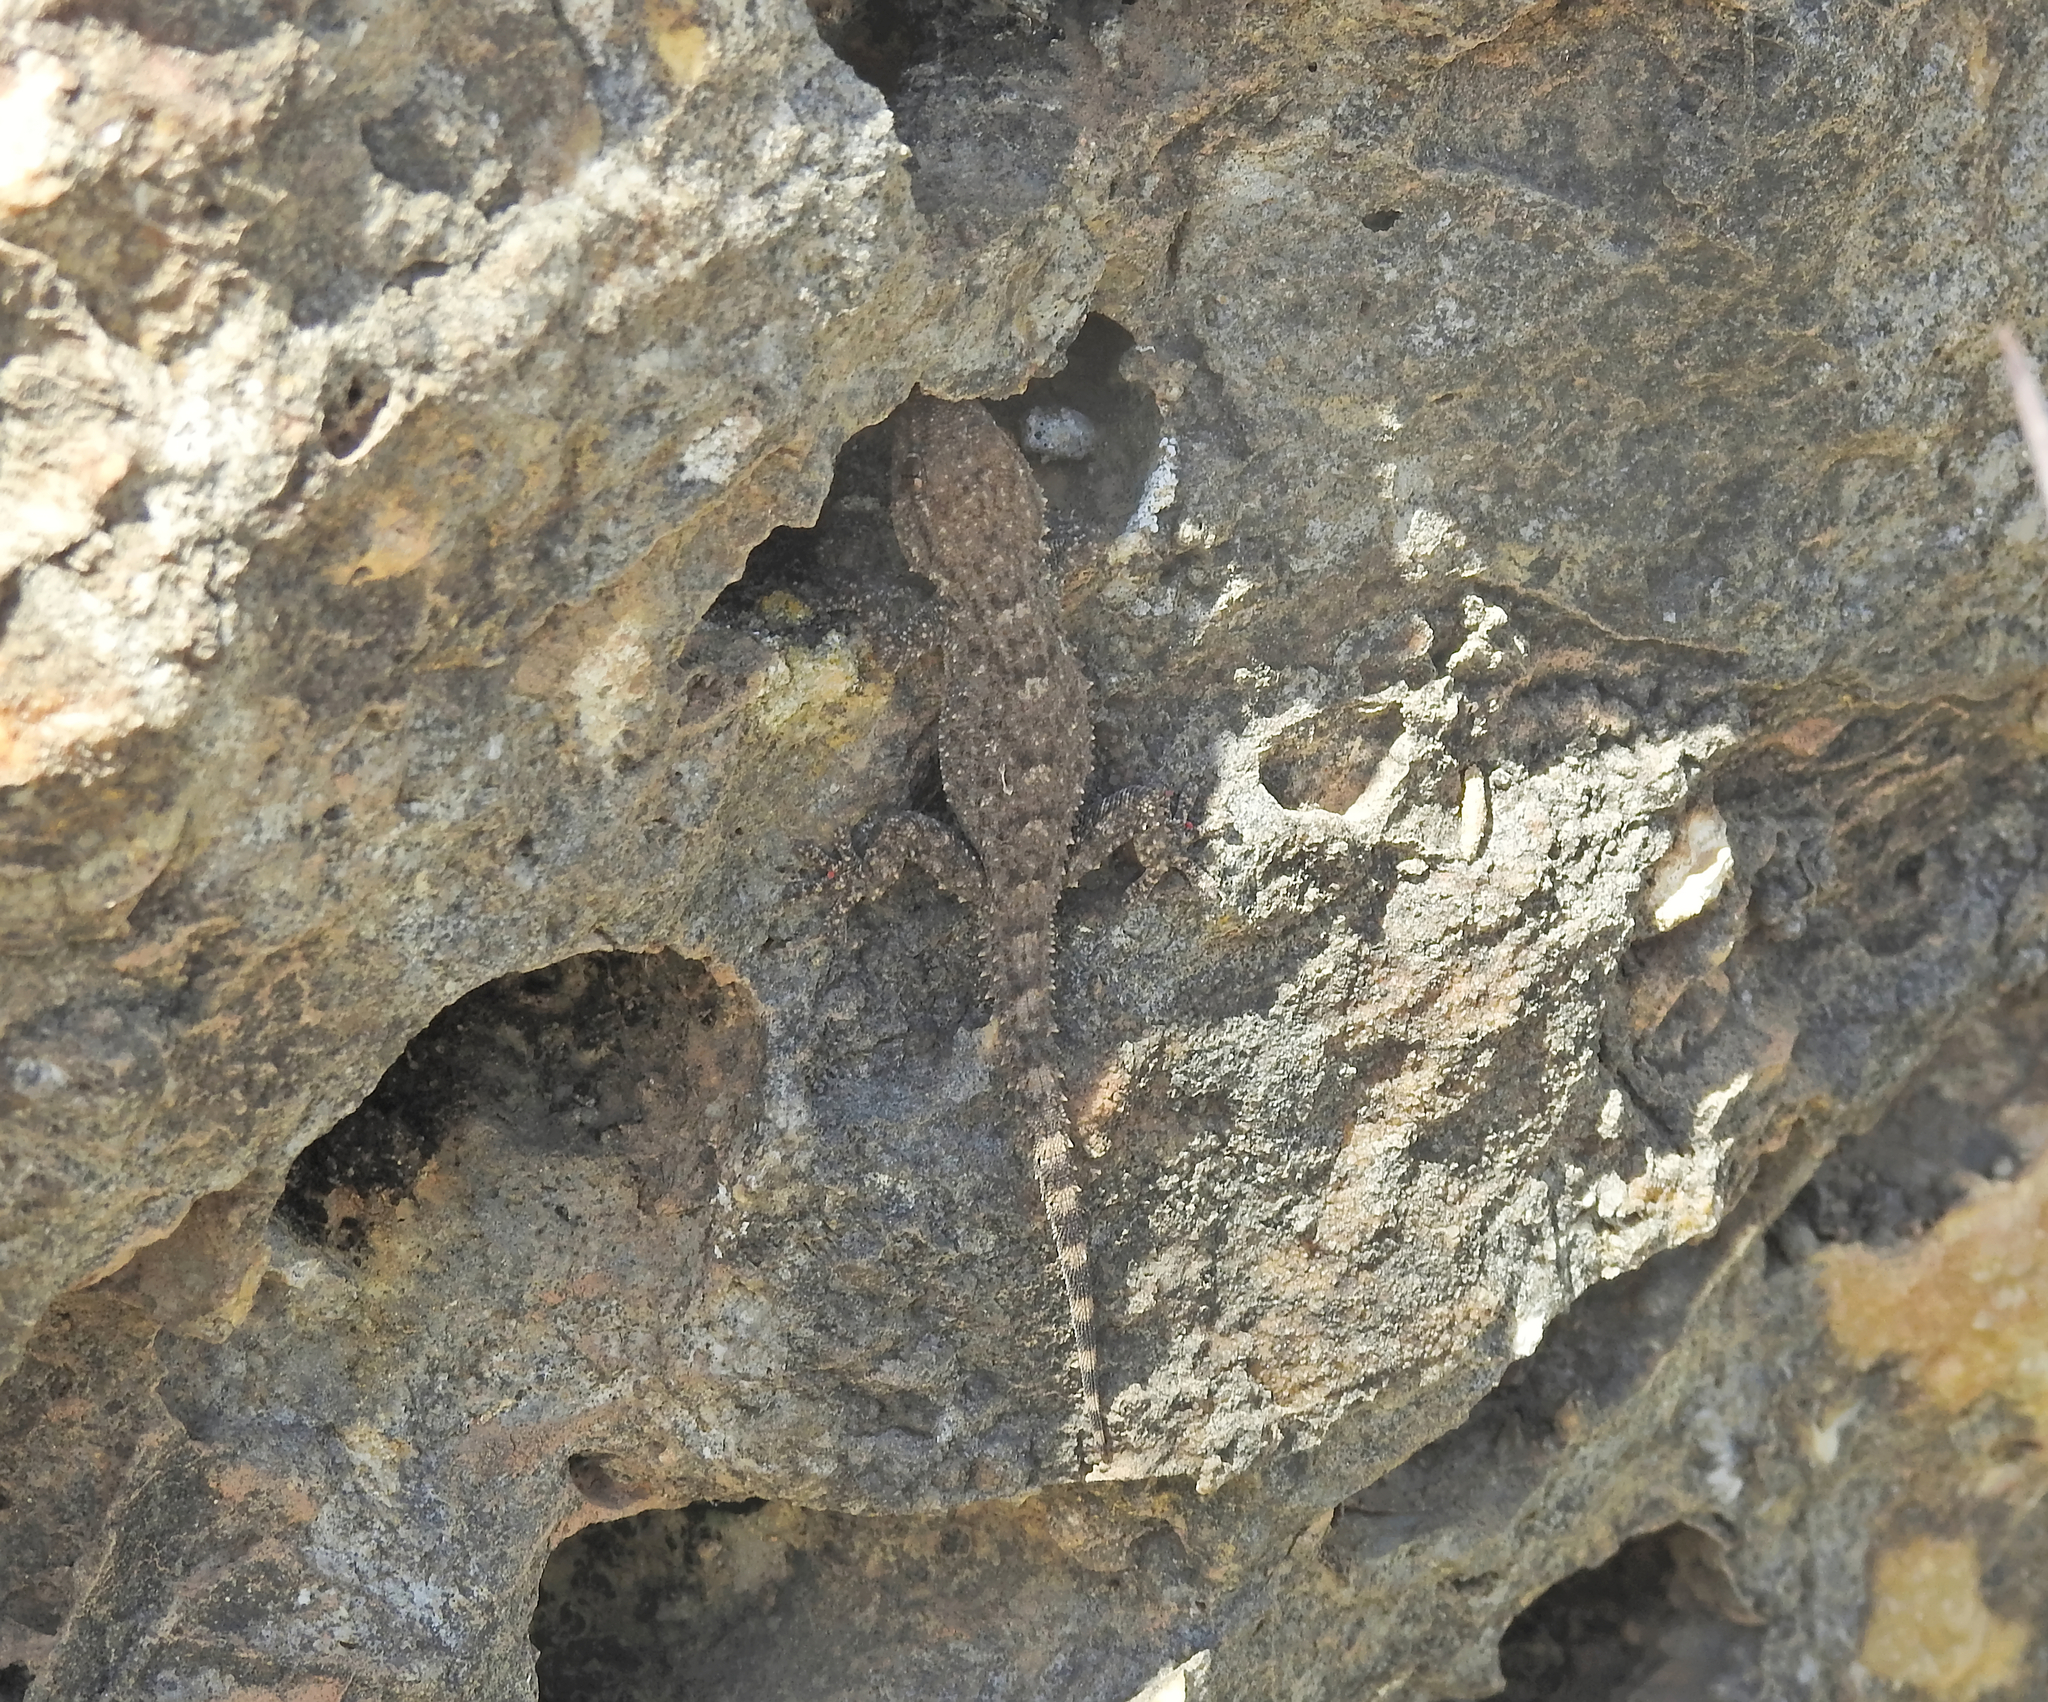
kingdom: Animalia
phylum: Chordata
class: Squamata
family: Phyllodactylidae
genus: Tarentola
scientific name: Tarentola mauritanica
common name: Moorish gecko
